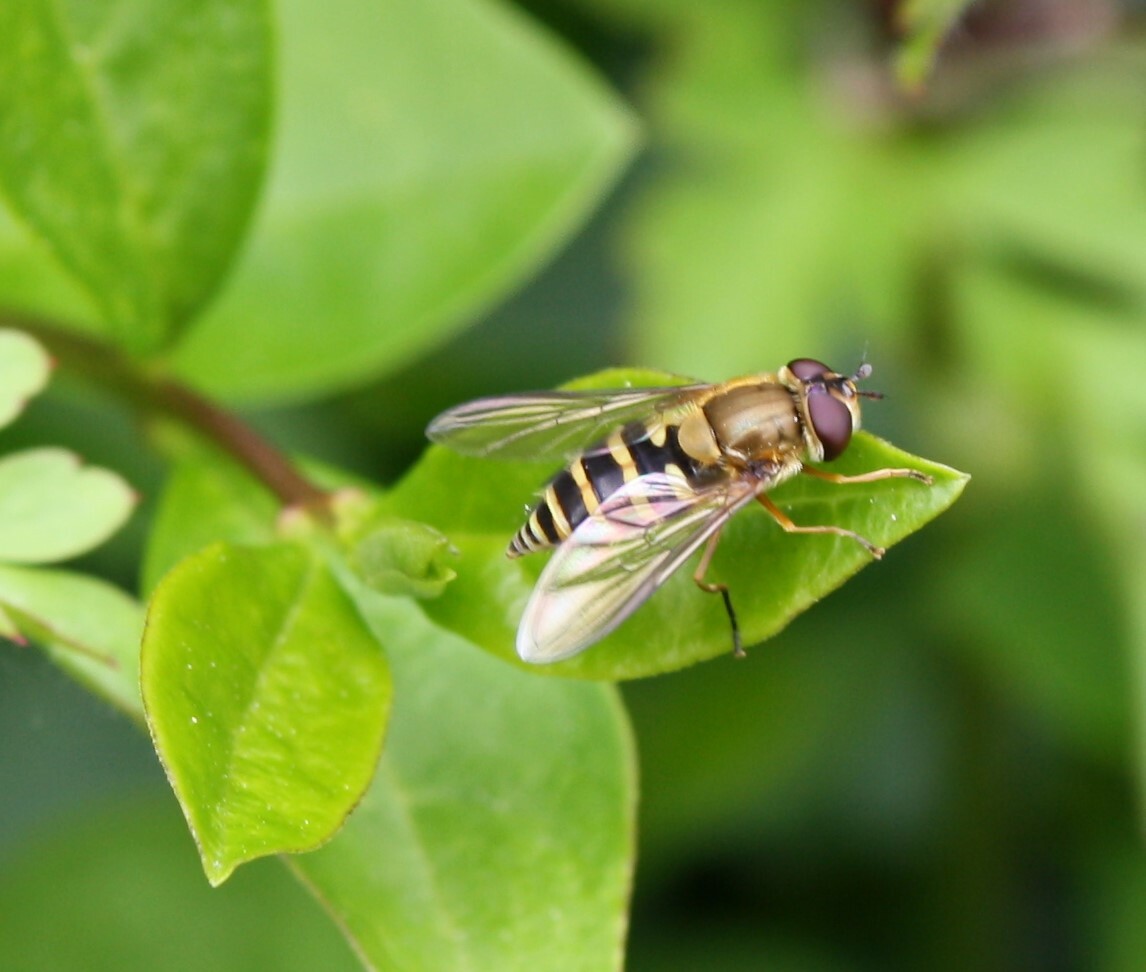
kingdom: Animalia
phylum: Arthropoda
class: Insecta
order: Diptera
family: Syrphidae
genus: Syrphus
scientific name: Syrphus ribesii
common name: Common flower fly
